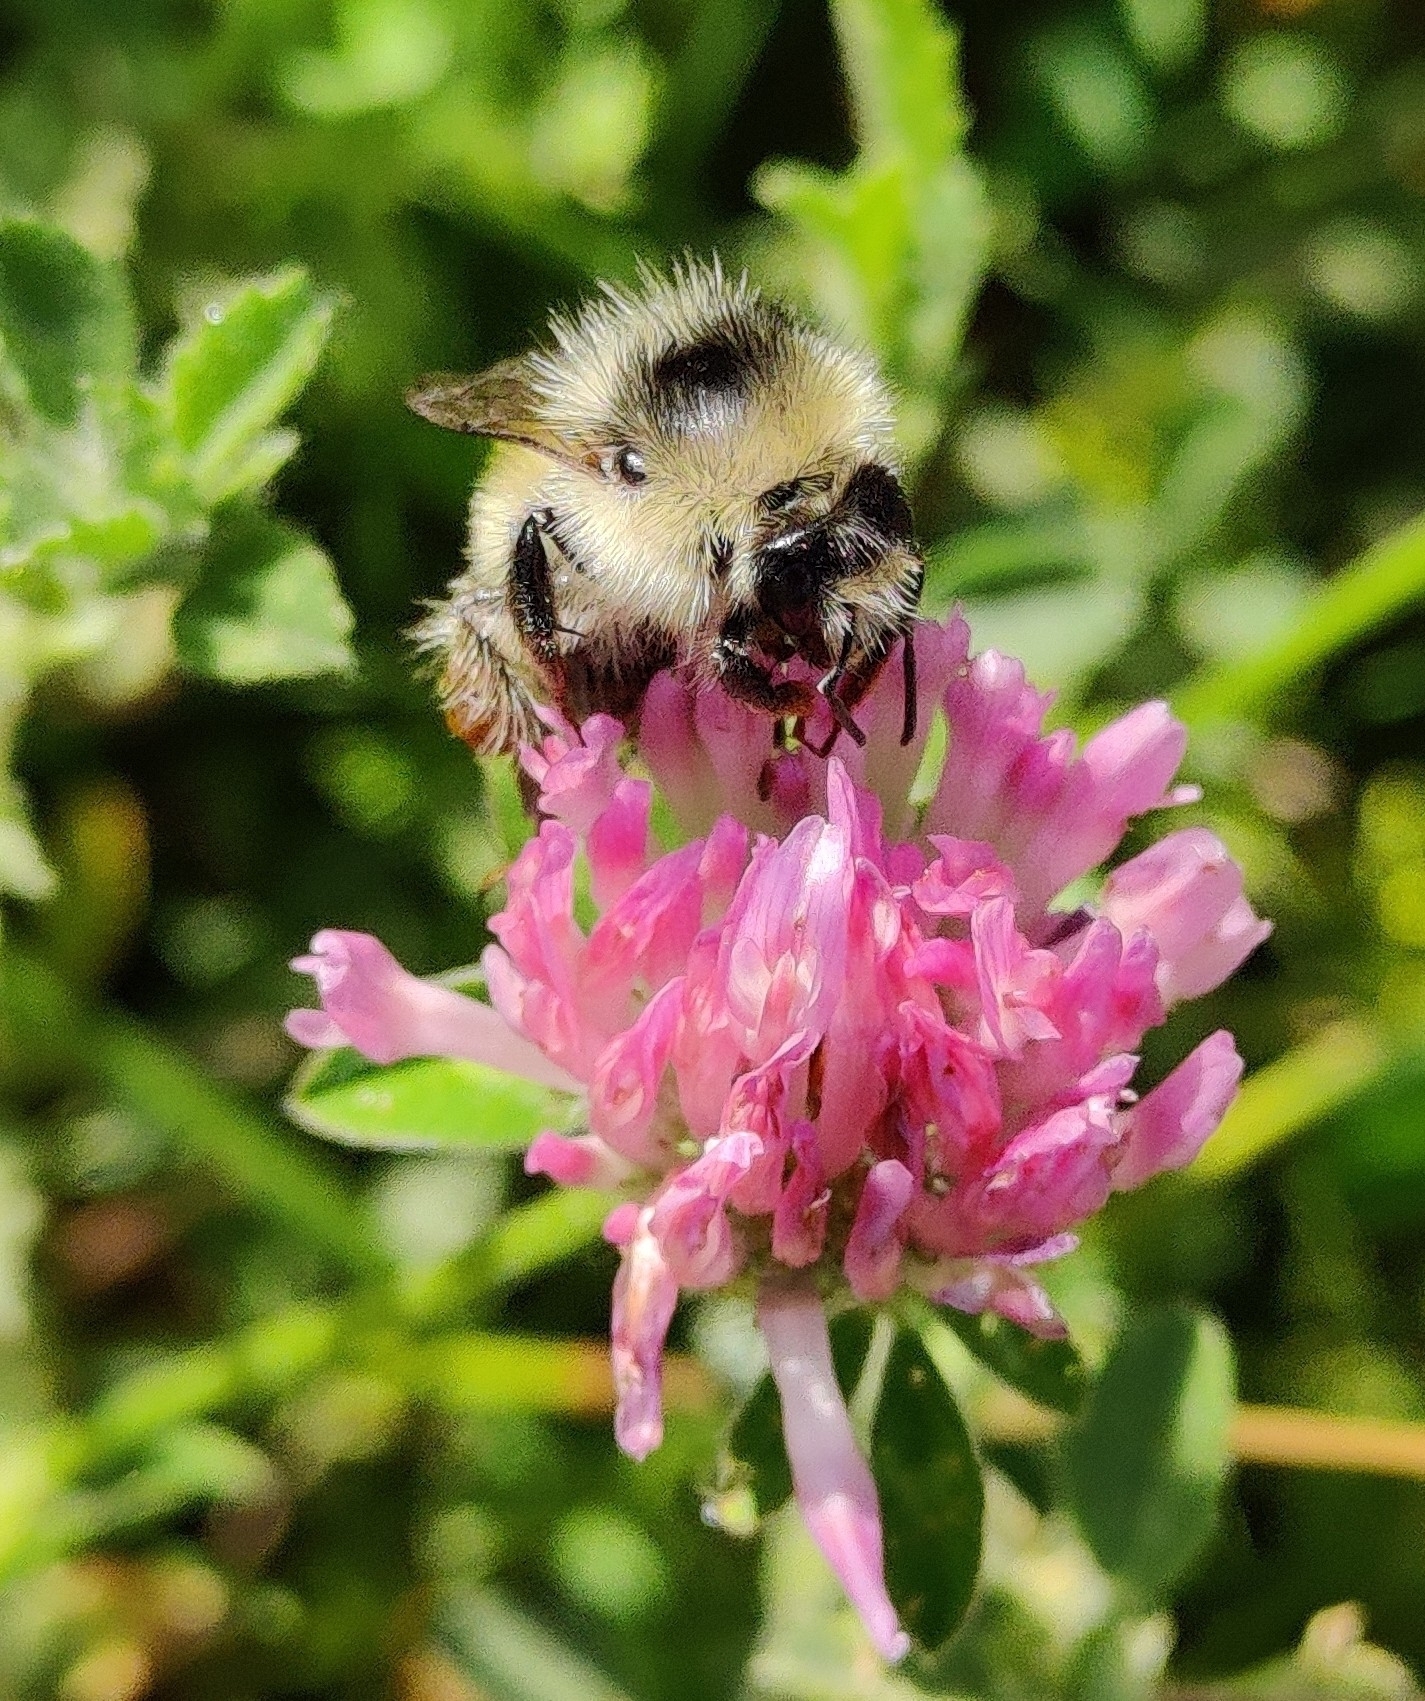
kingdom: Animalia
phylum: Arthropoda
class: Insecta
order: Hymenoptera
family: Apidae
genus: Bombus
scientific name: Bombus sylvarum
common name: Shrill carder bee
